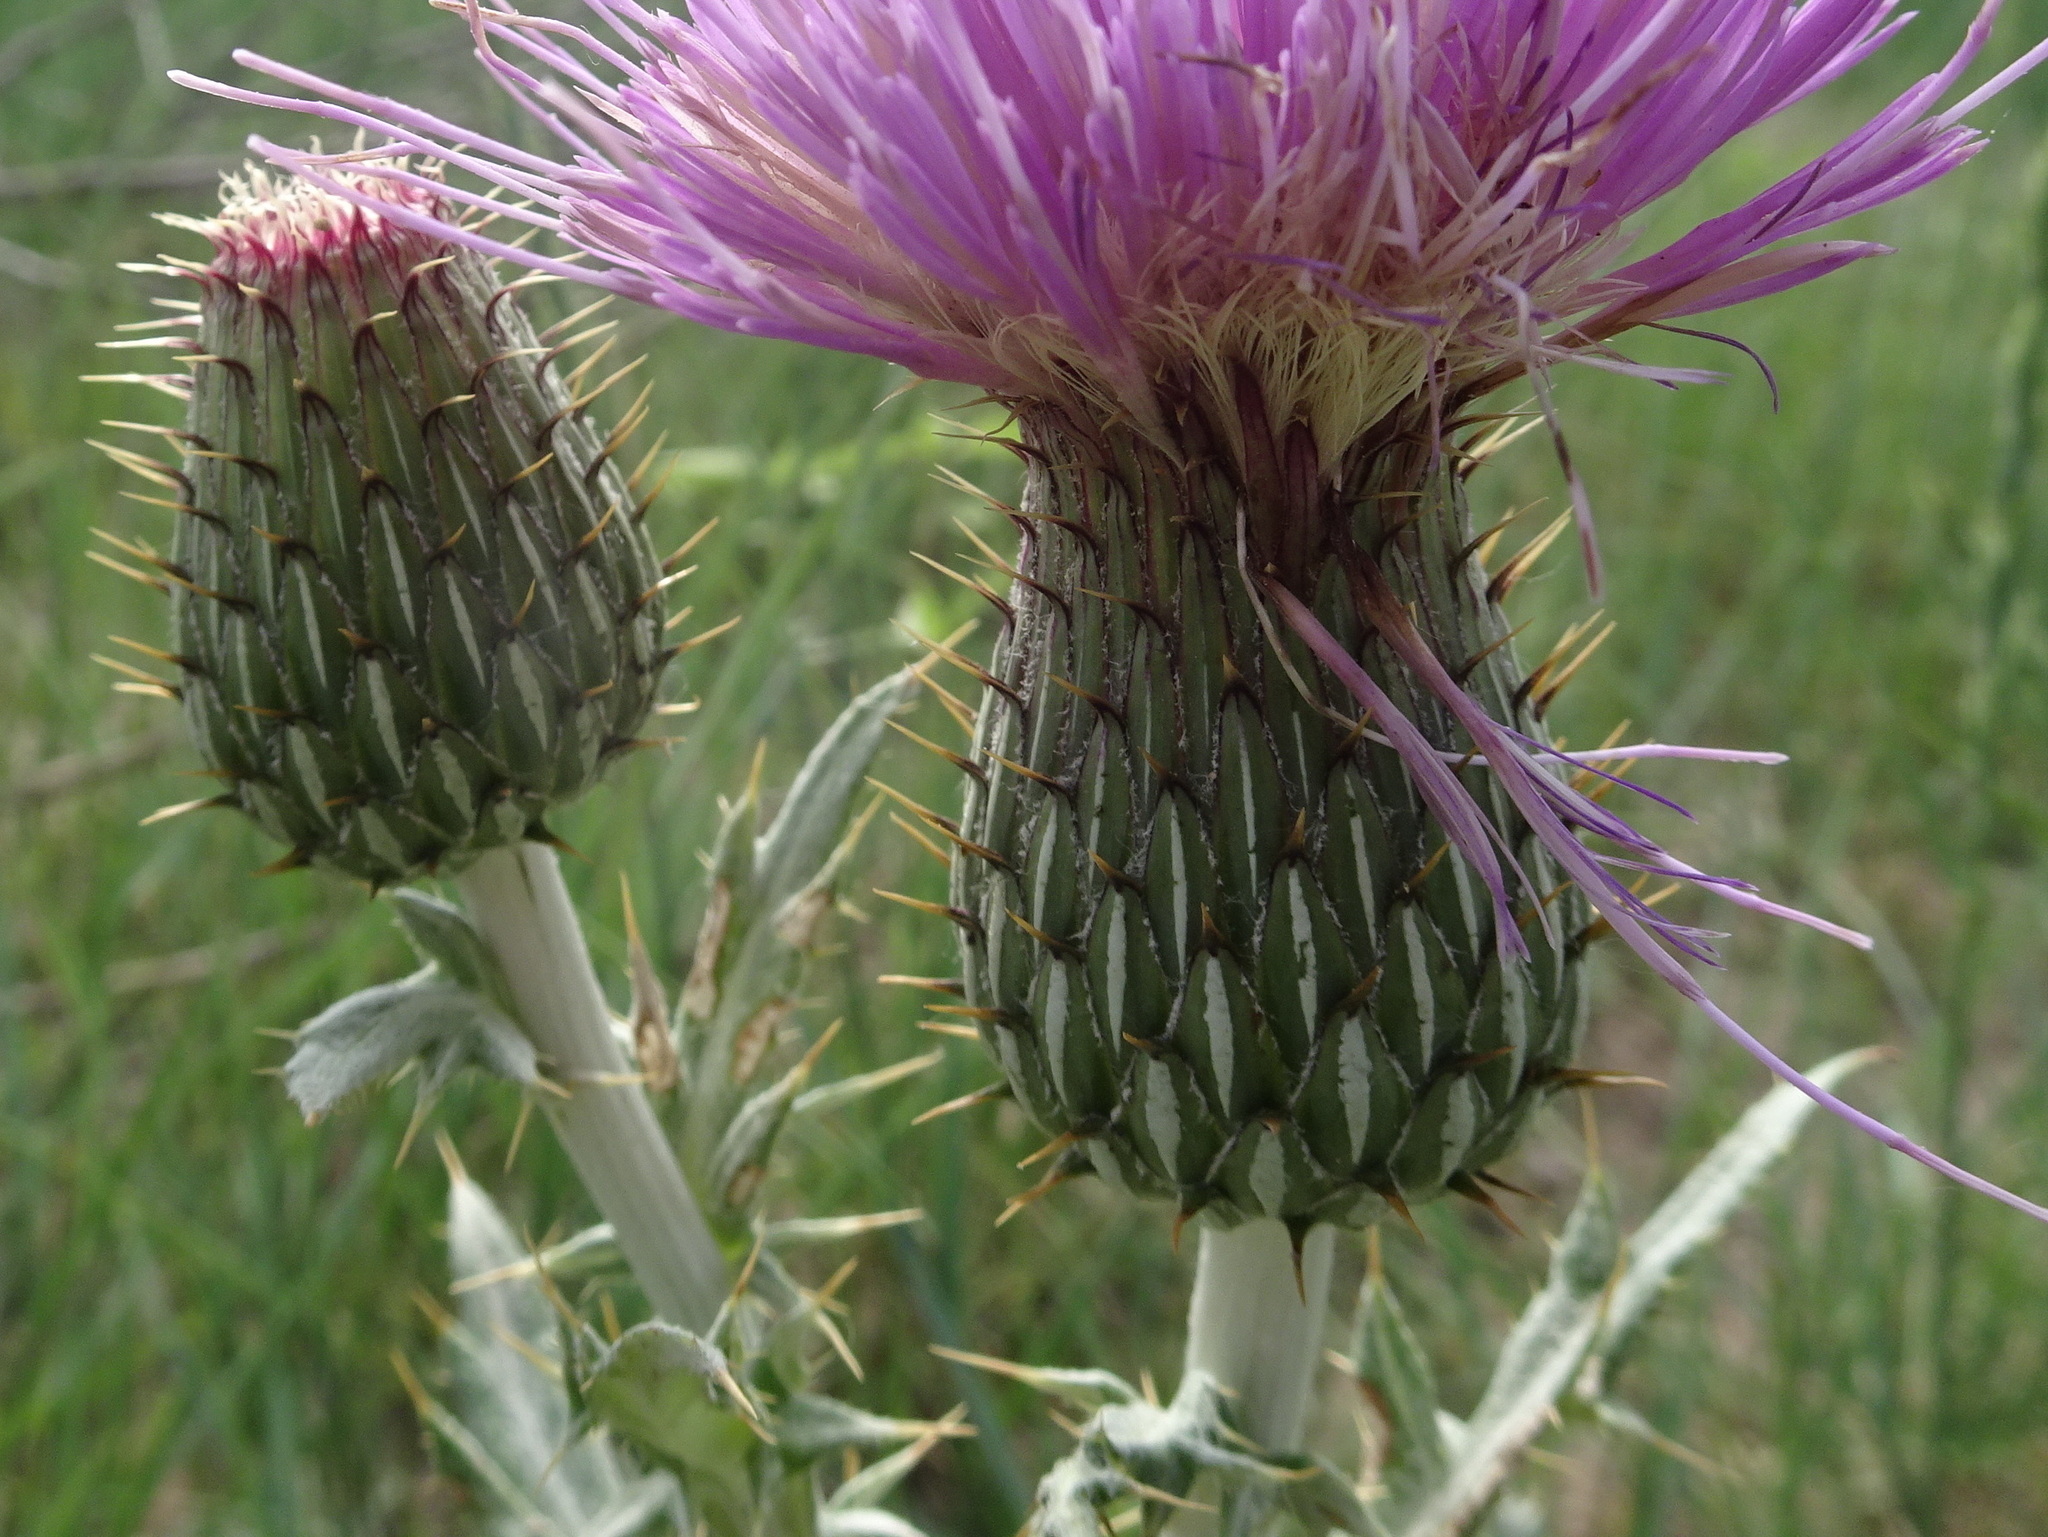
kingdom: Plantae
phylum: Tracheophyta
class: Magnoliopsida
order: Asterales
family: Asteraceae
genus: Cirsium
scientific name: Cirsium undulatum
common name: Pasture thistle
